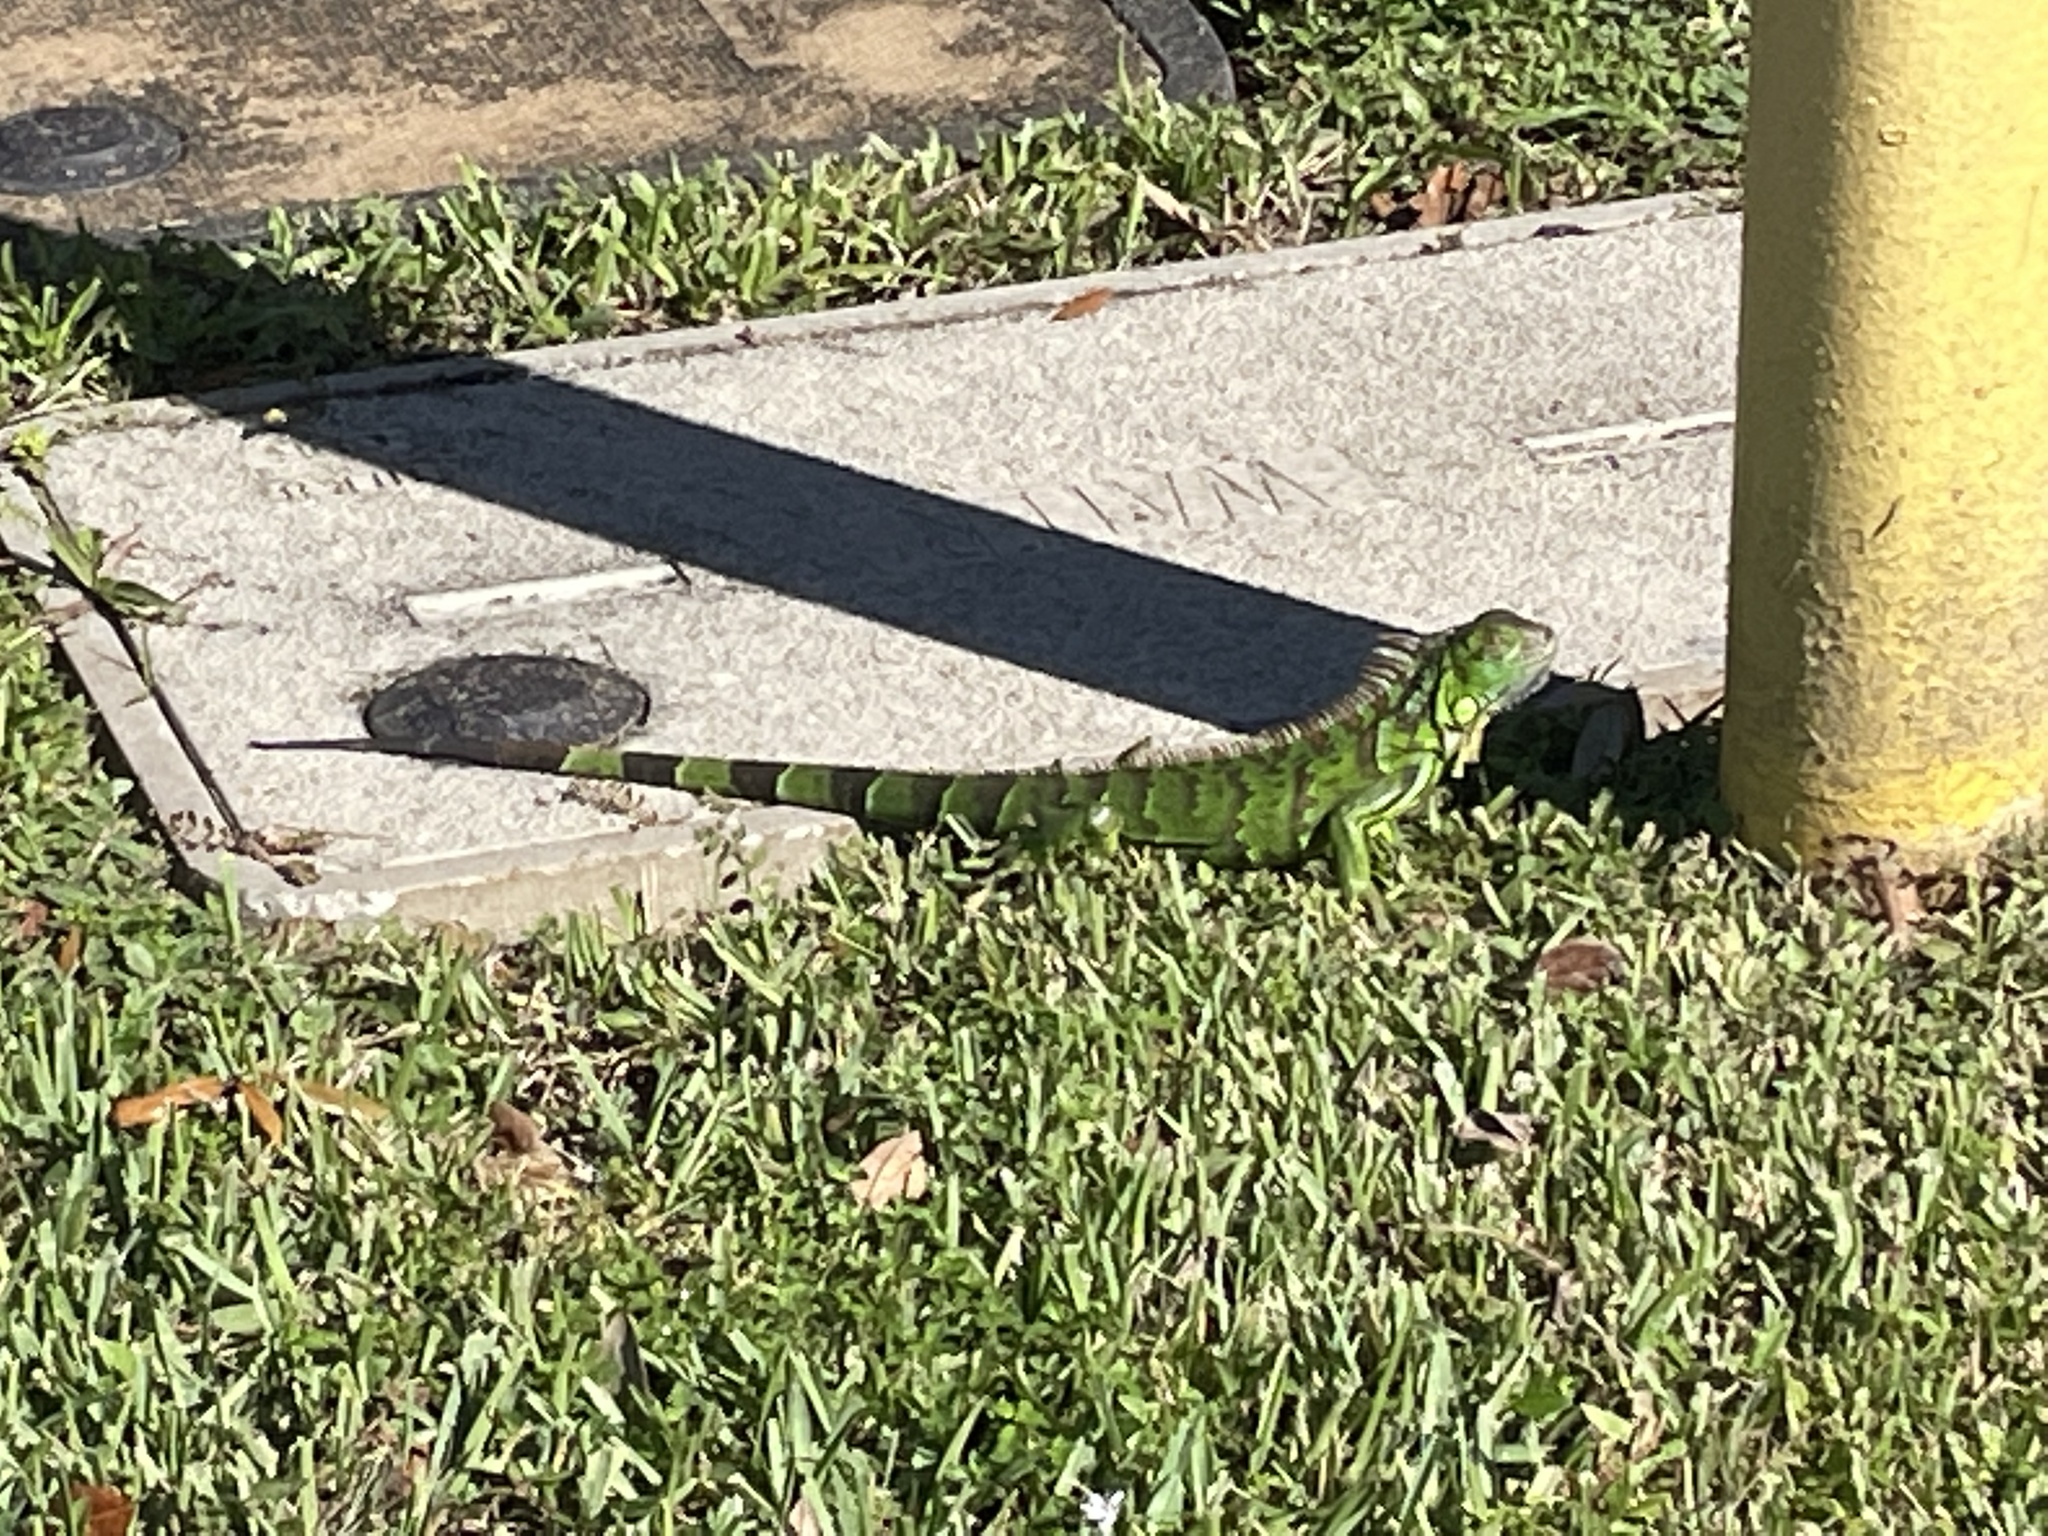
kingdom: Animalia
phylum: Chordata
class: Squamata
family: Iguanidae
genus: Iguana
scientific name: Iguana iguana
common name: Green iguana
